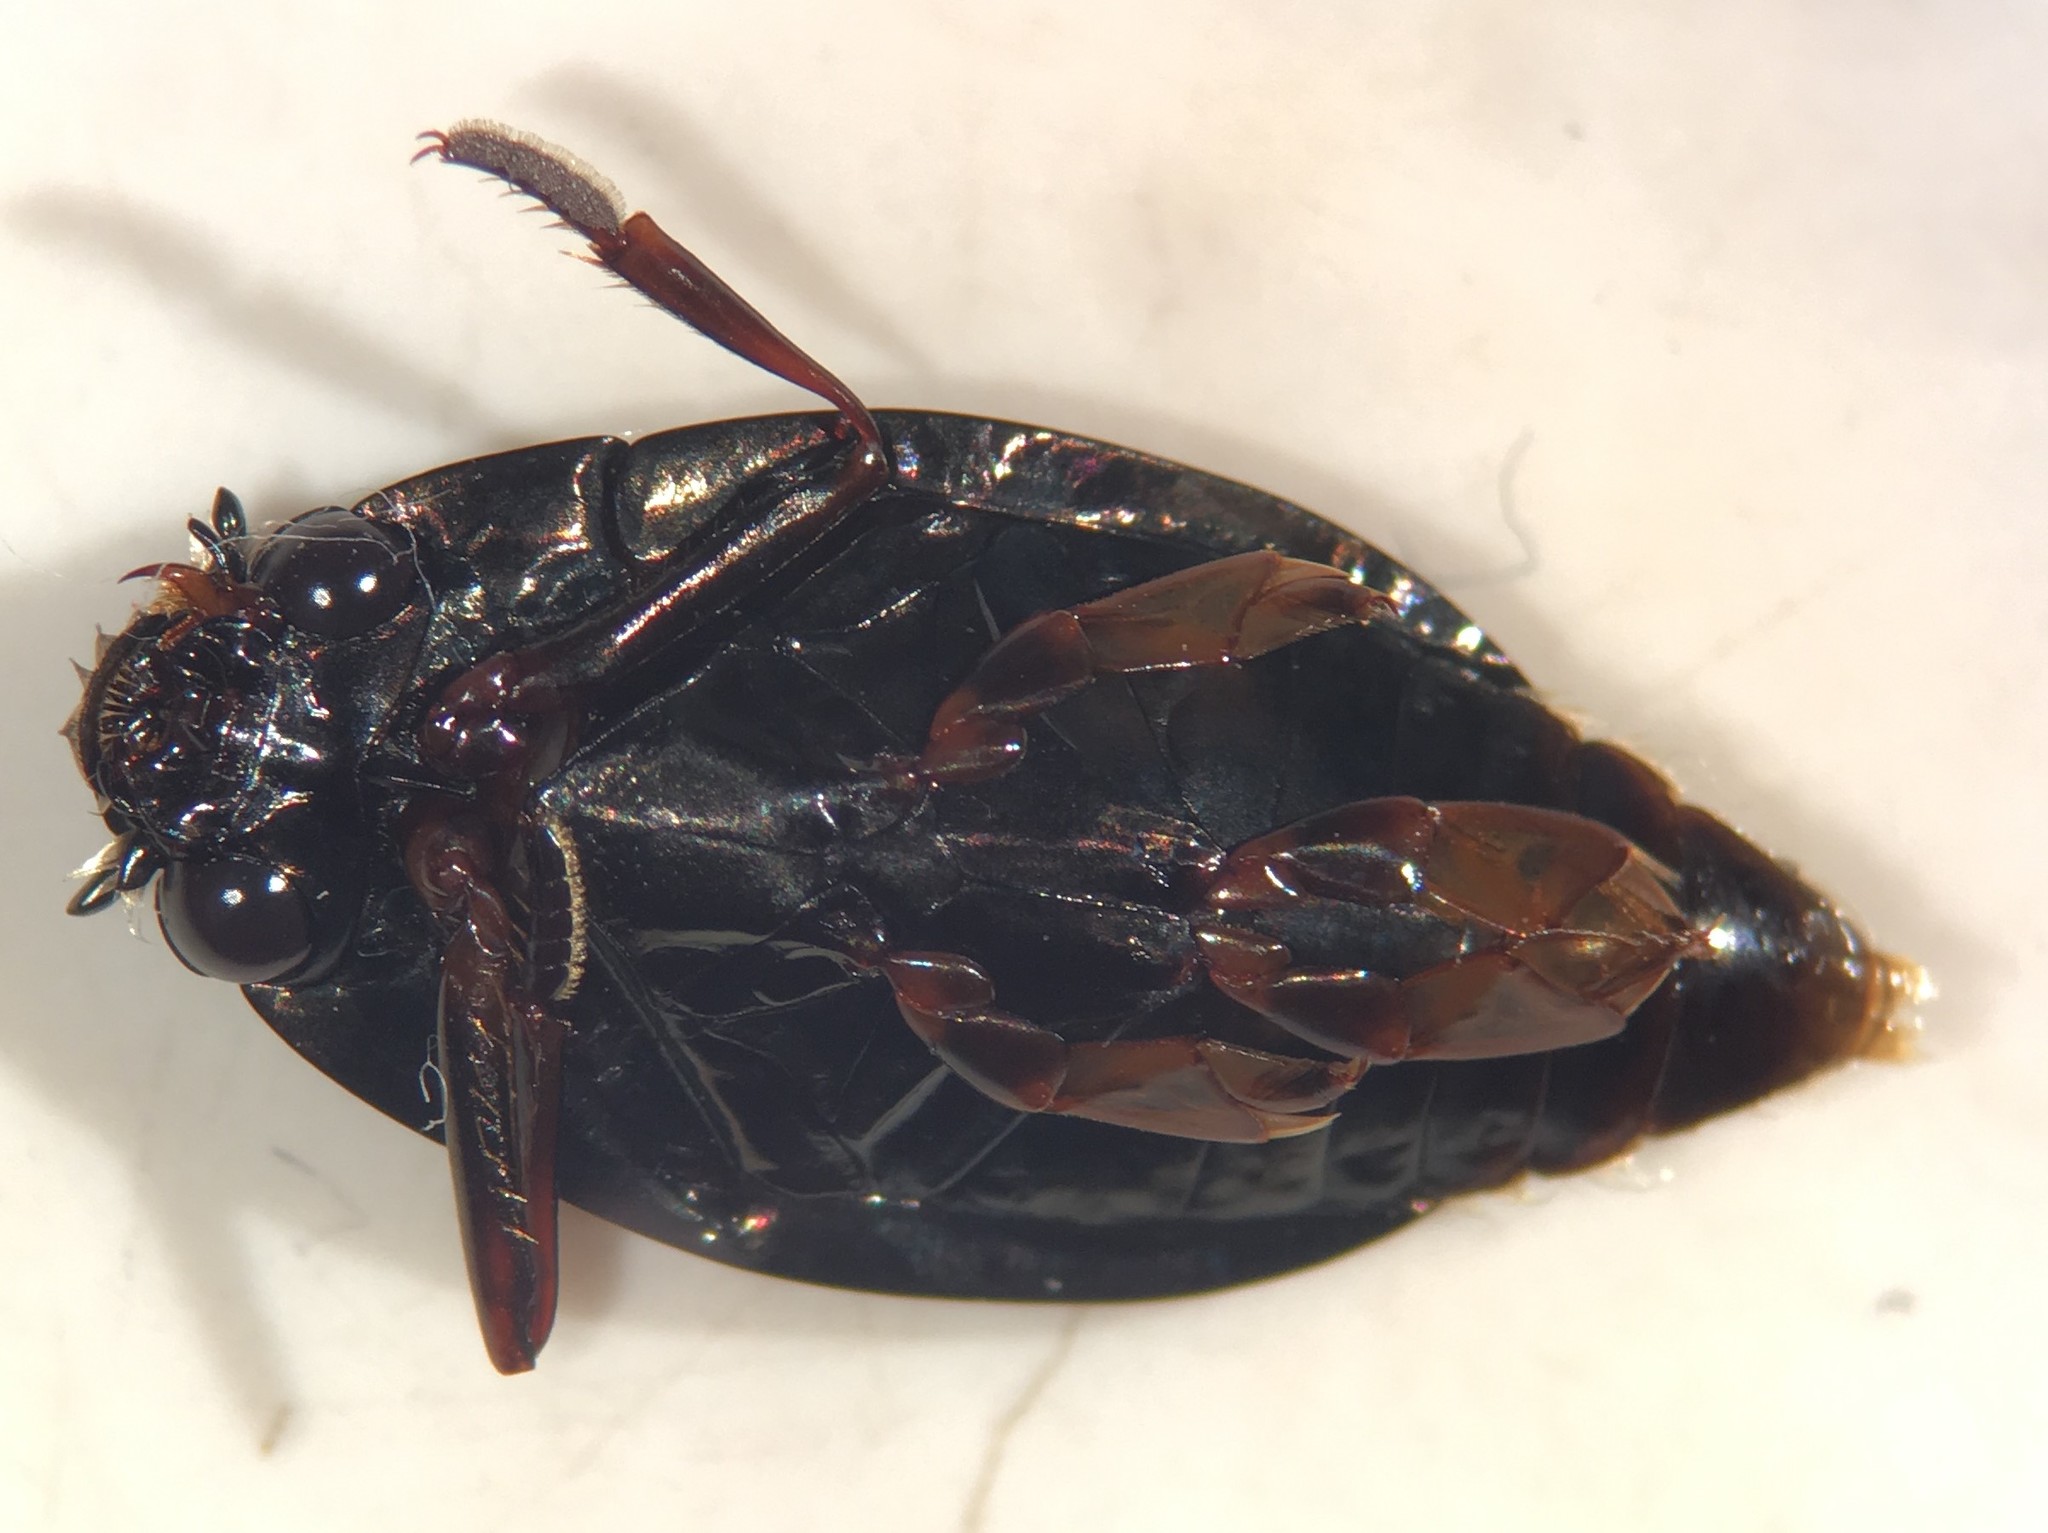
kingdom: Animalia
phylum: Arthropoda
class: Insecta
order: Coleoptera
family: Gyrinidae
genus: Dineutus
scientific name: Dineutus carolinus
